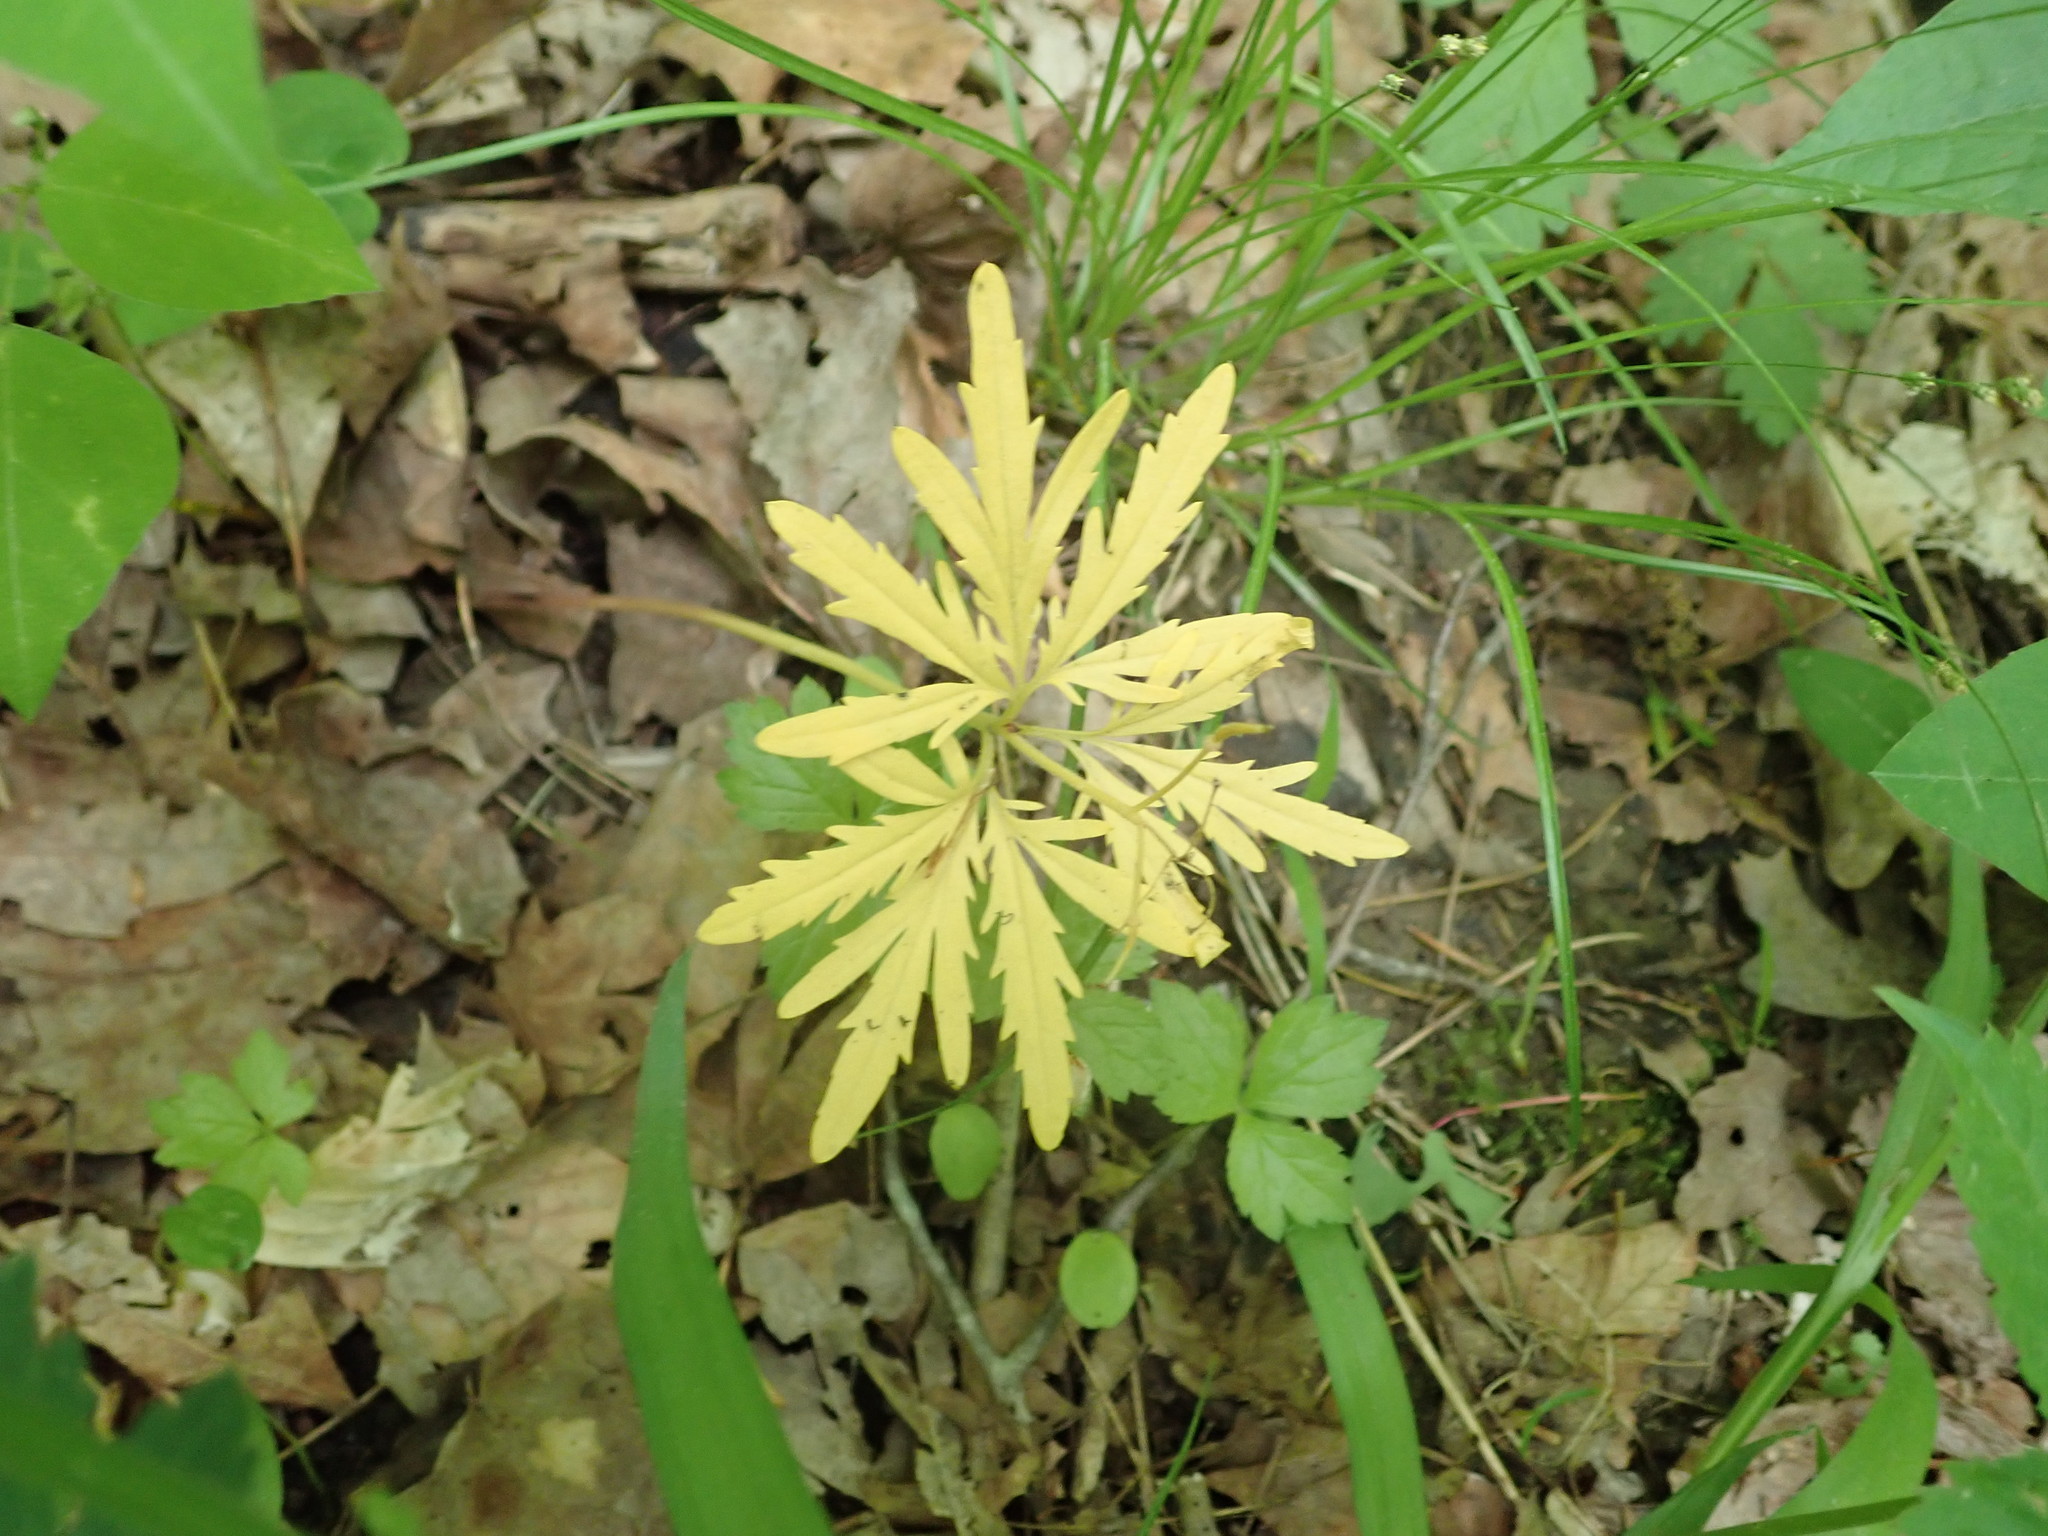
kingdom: Plantae
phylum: Tracheophyta
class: Magnoliopsida
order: Brassicales
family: Brassicaceae
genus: Cardamine
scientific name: Cardamine concatenata
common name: Cut-leaf toothcup
